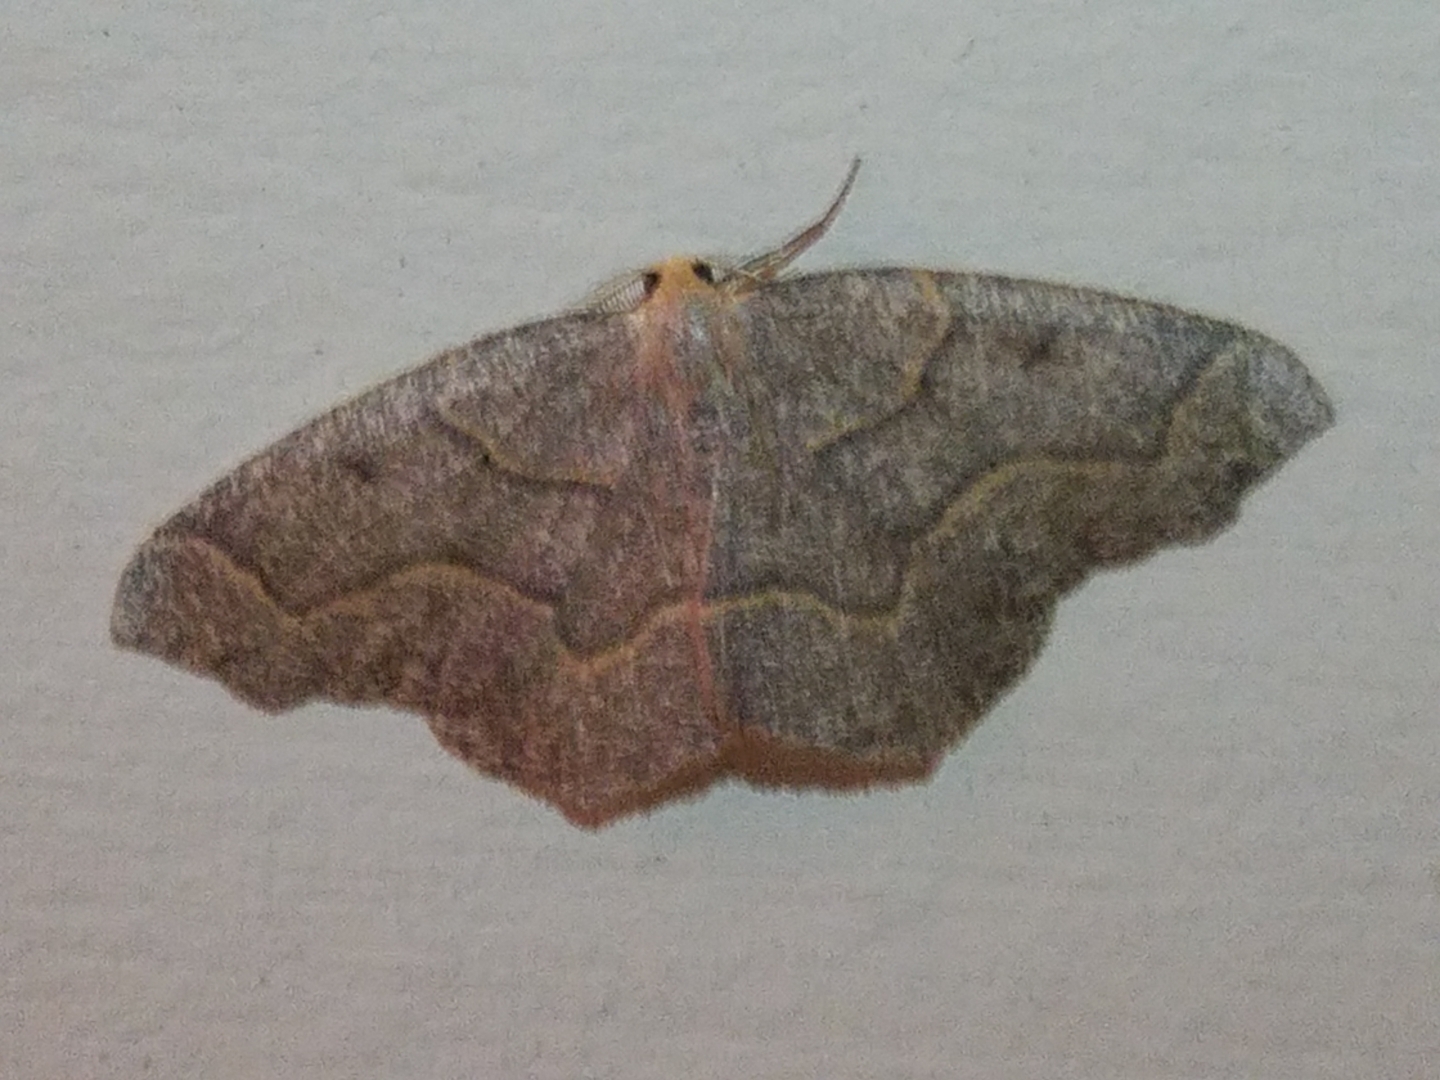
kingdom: Animalia
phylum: Arthropoda
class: Insecta
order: Lepidoptera
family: Geometridae
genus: Lambdina
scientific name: Lambdina fiscellaria
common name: Hemlock looper
